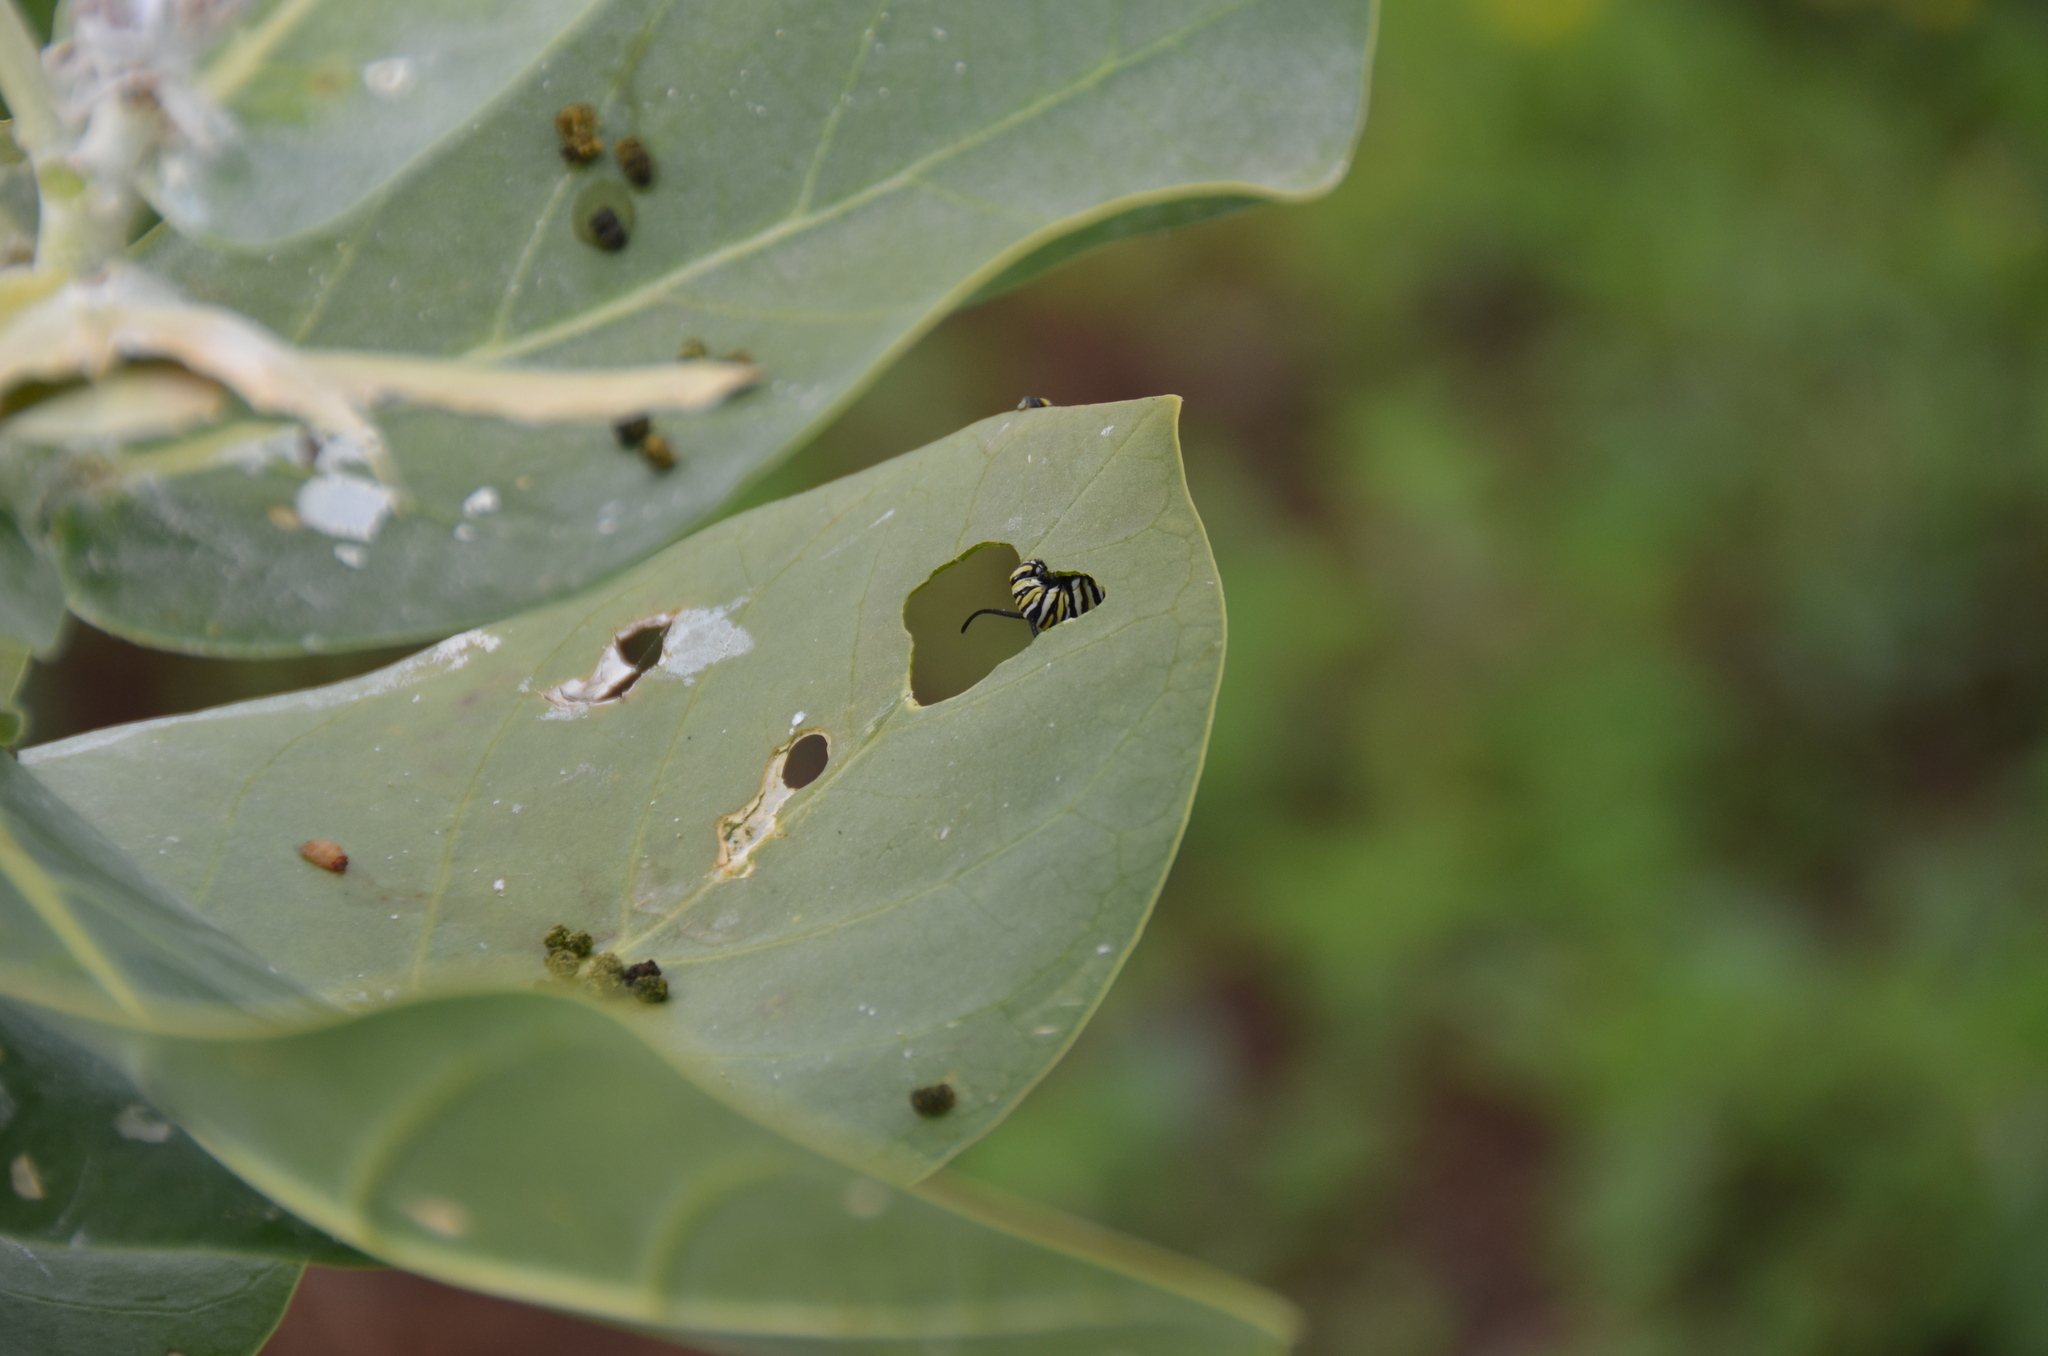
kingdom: Animalia
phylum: Arthropoda
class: Insecta
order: Lepidoptera
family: Nymphalidae
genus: Danaus
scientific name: Danaus plexippus
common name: Monarch
